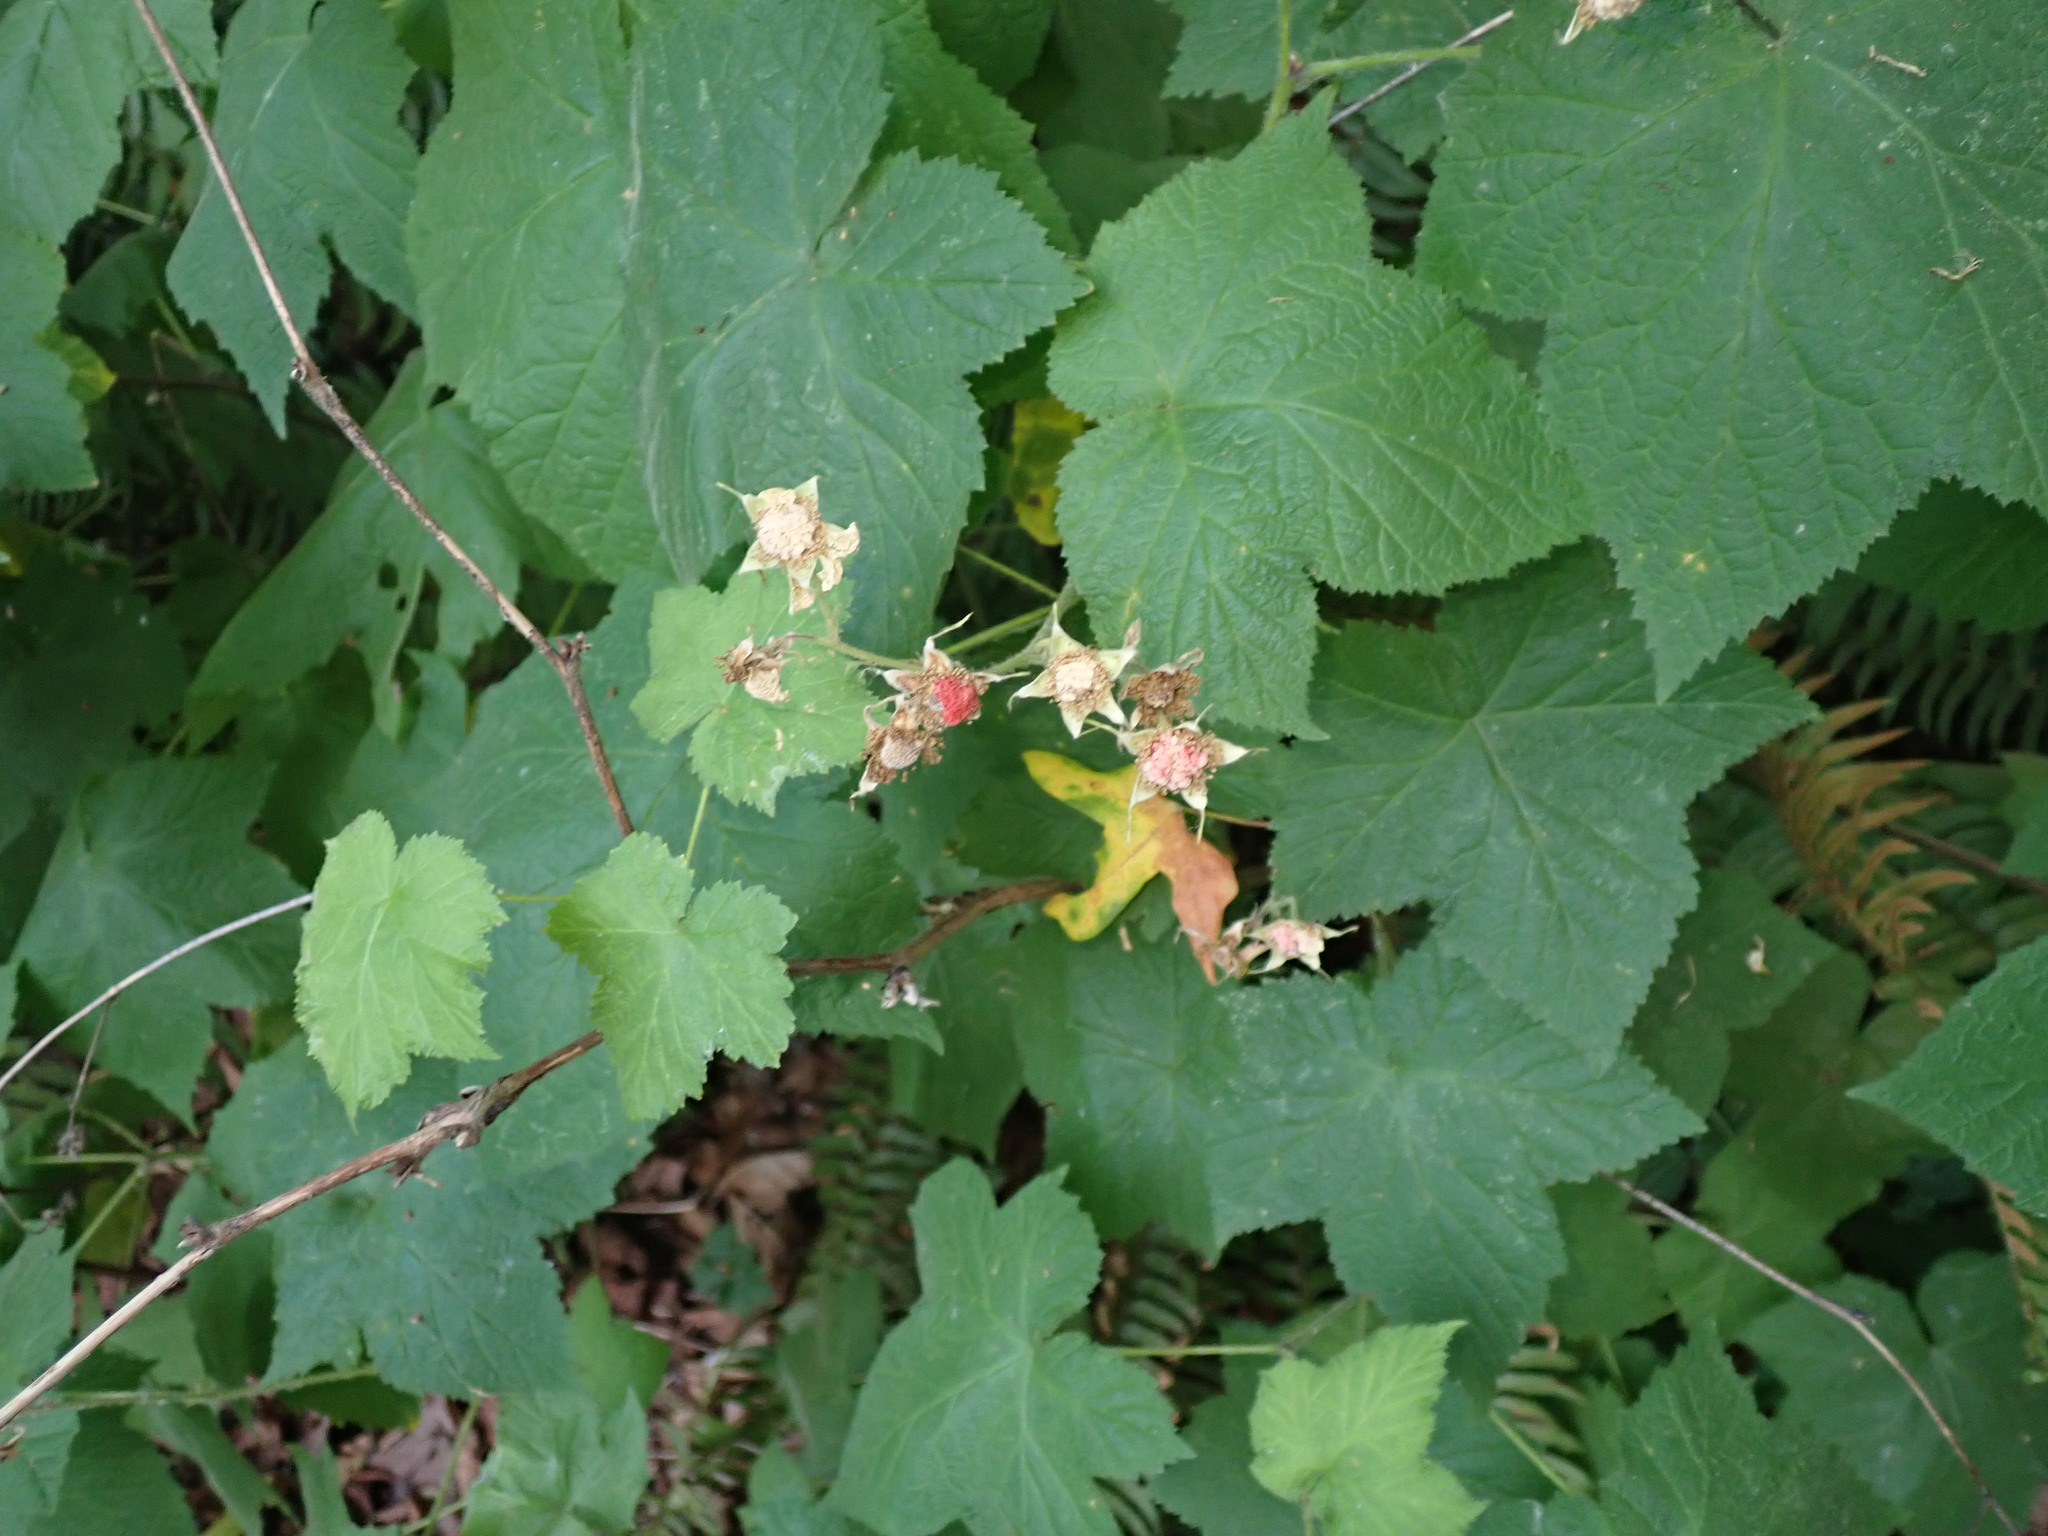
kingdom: Plantae
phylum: Tracheophyta
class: Magnoliopsida
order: Rosales
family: Rosaceae
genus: Rubus
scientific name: Rubus parviflorus
